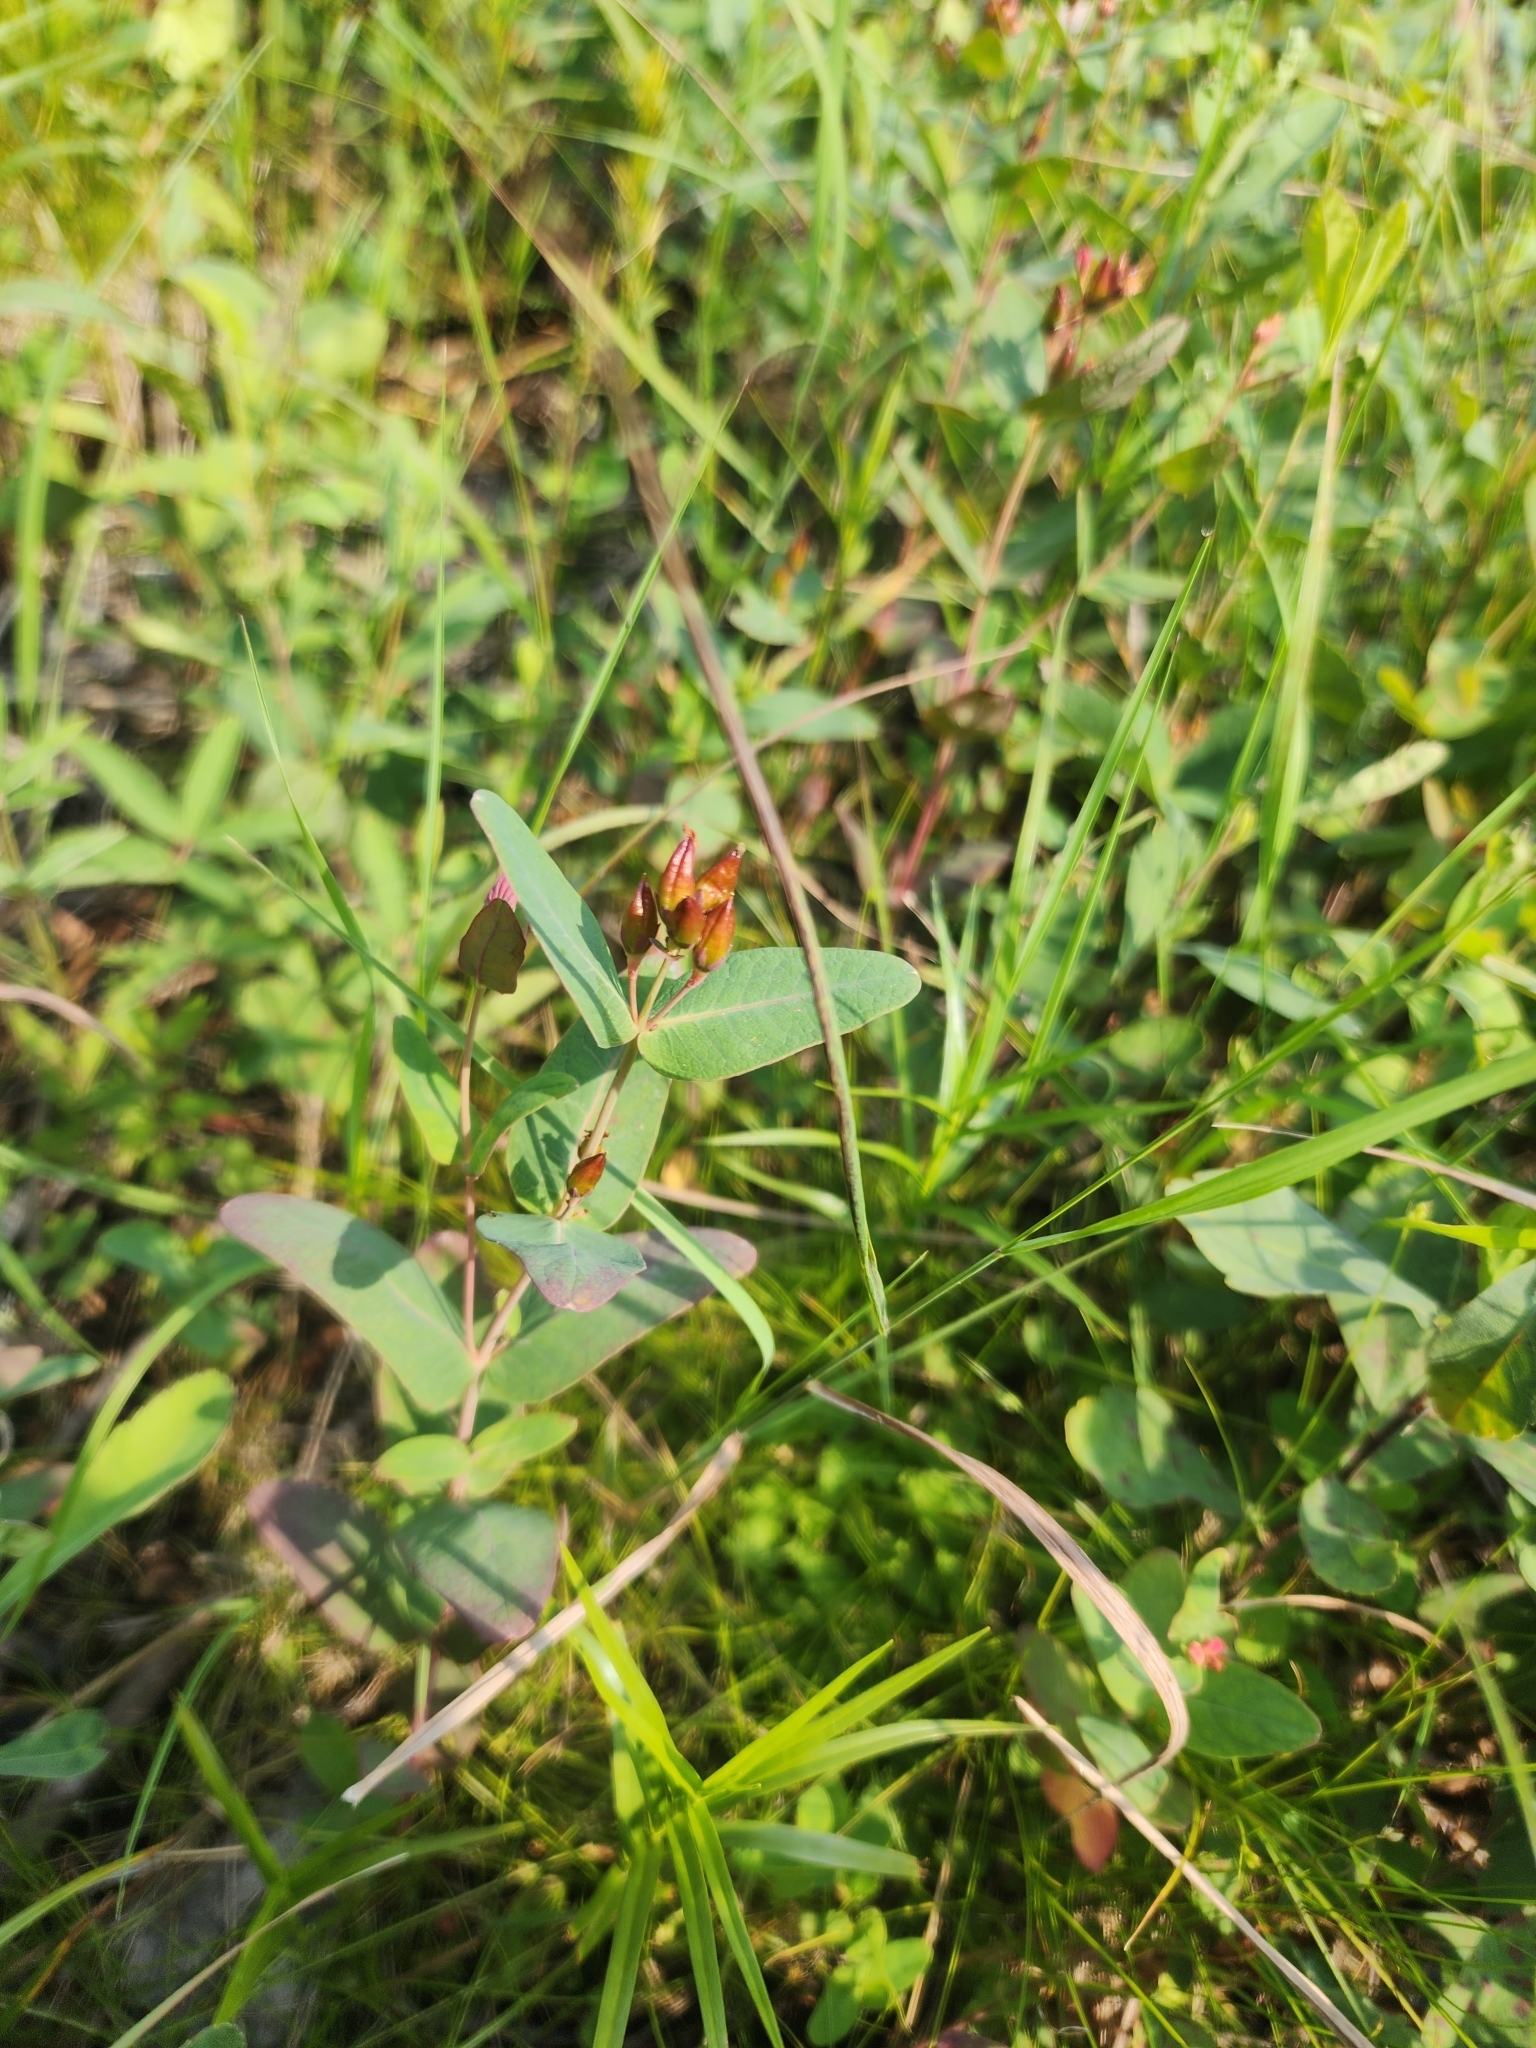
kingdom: Plantae
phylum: Tracheophyta
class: Magnoliopsida
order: Malpighiales
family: Hypericaceae
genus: Triadenum
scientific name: Triadenum fraseri
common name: Fraser's marsh st. johnswort
